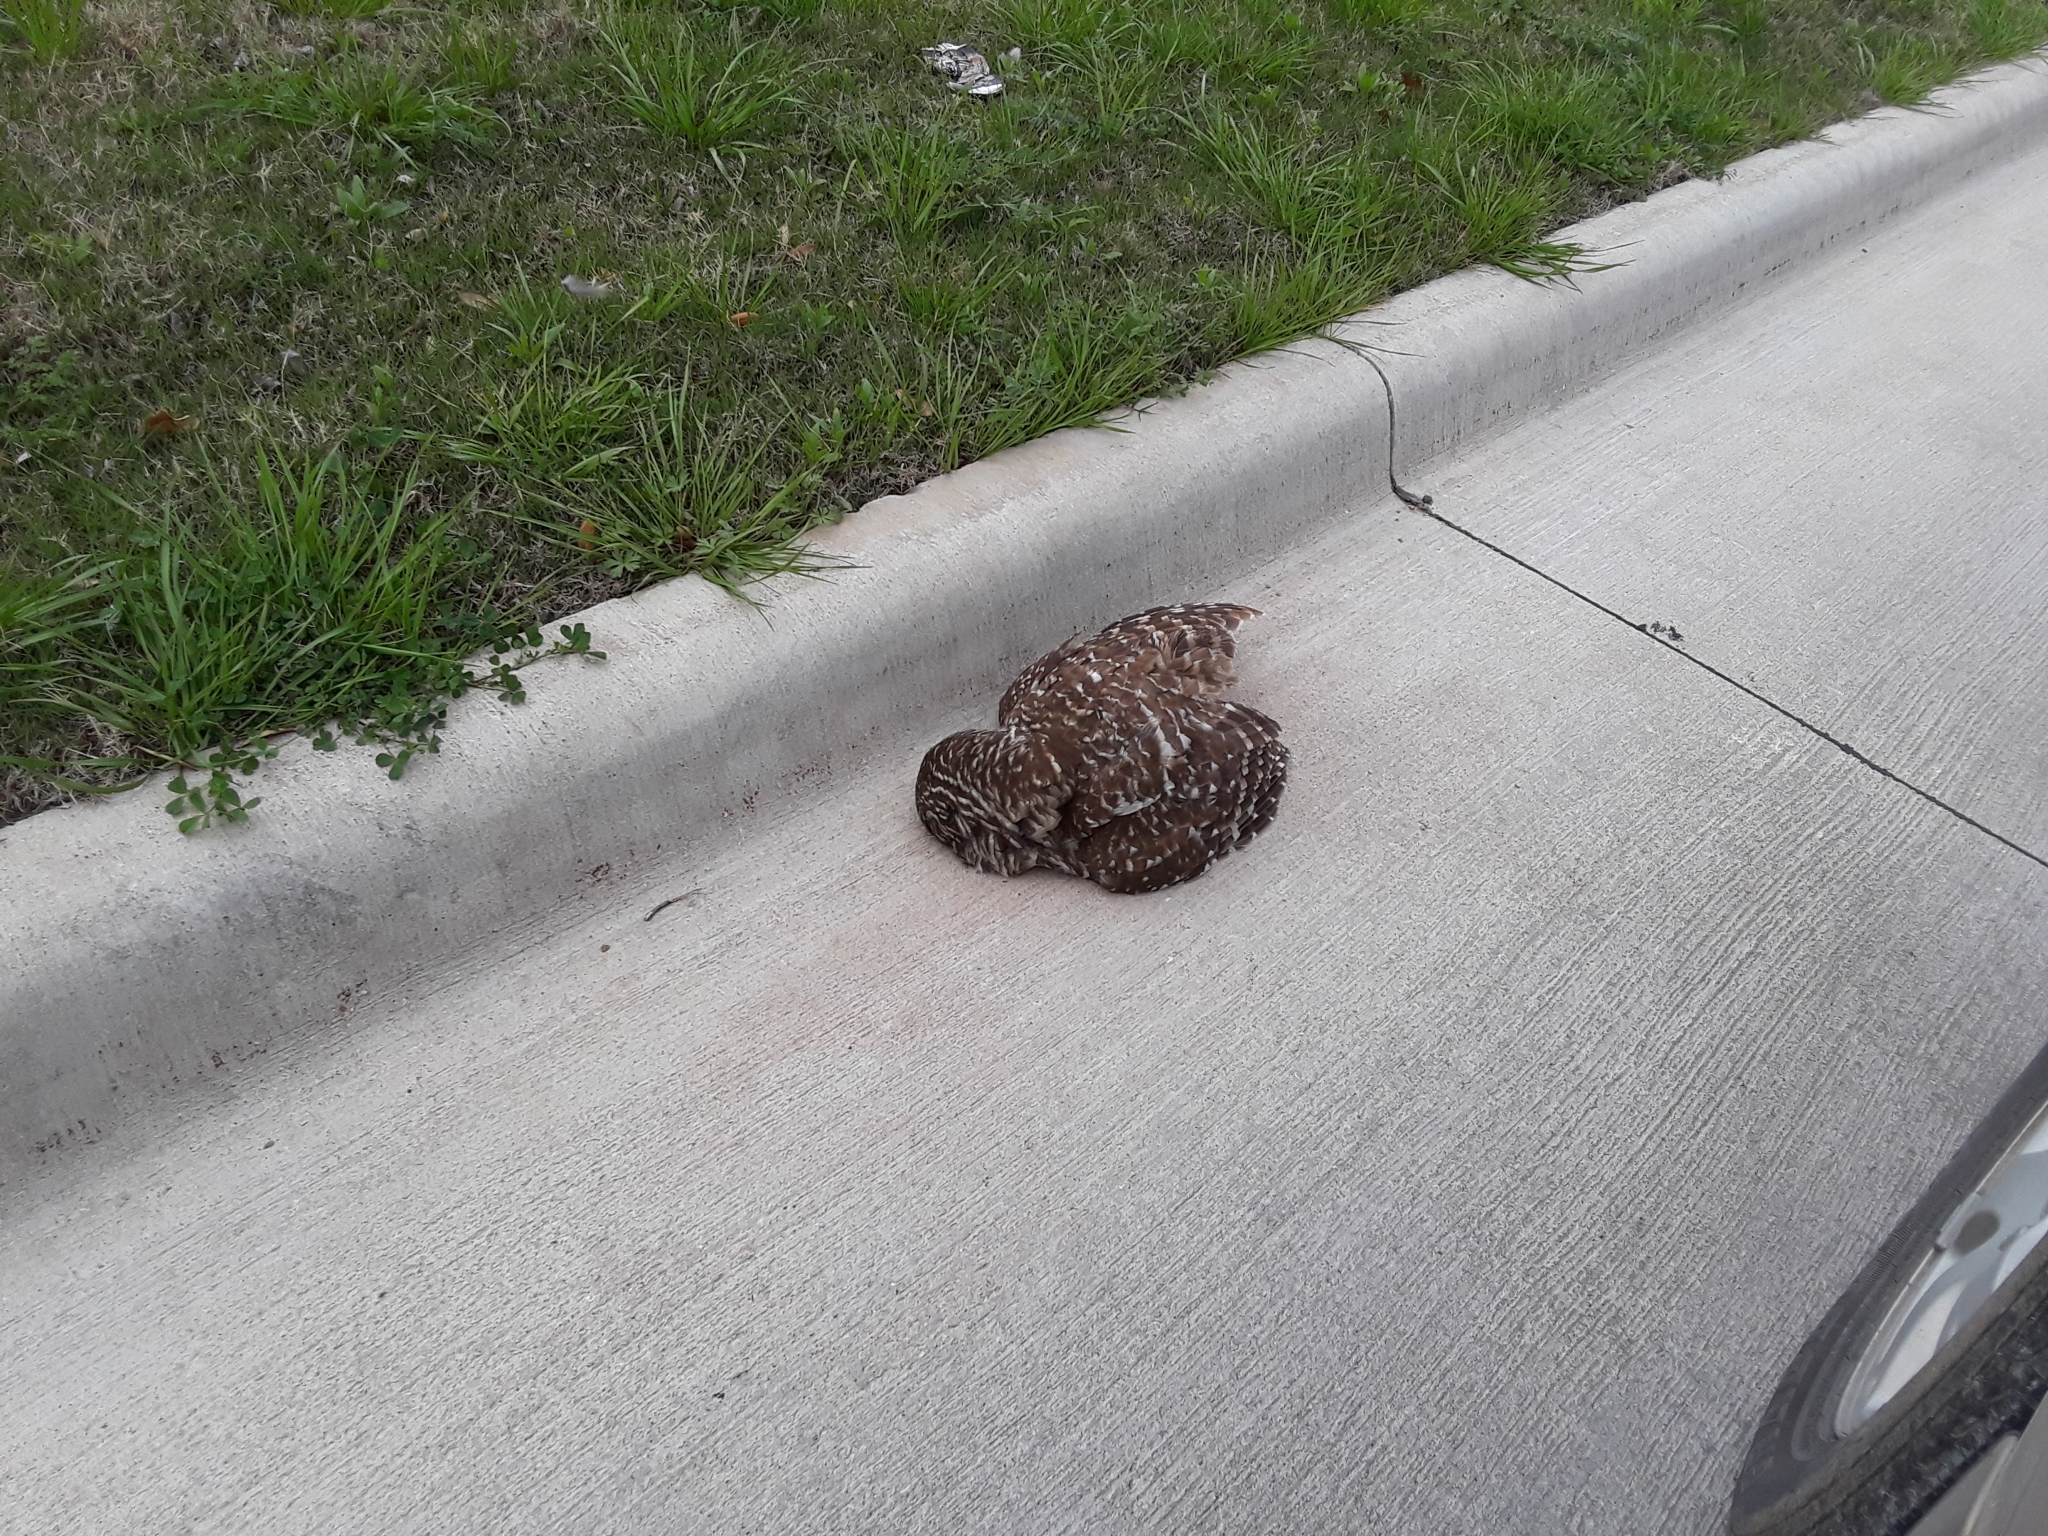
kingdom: Animalia
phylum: Chordata
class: Aves
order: Strigiformes
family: Strigidae
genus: Strix
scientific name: Strix varia
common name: Barred owl
